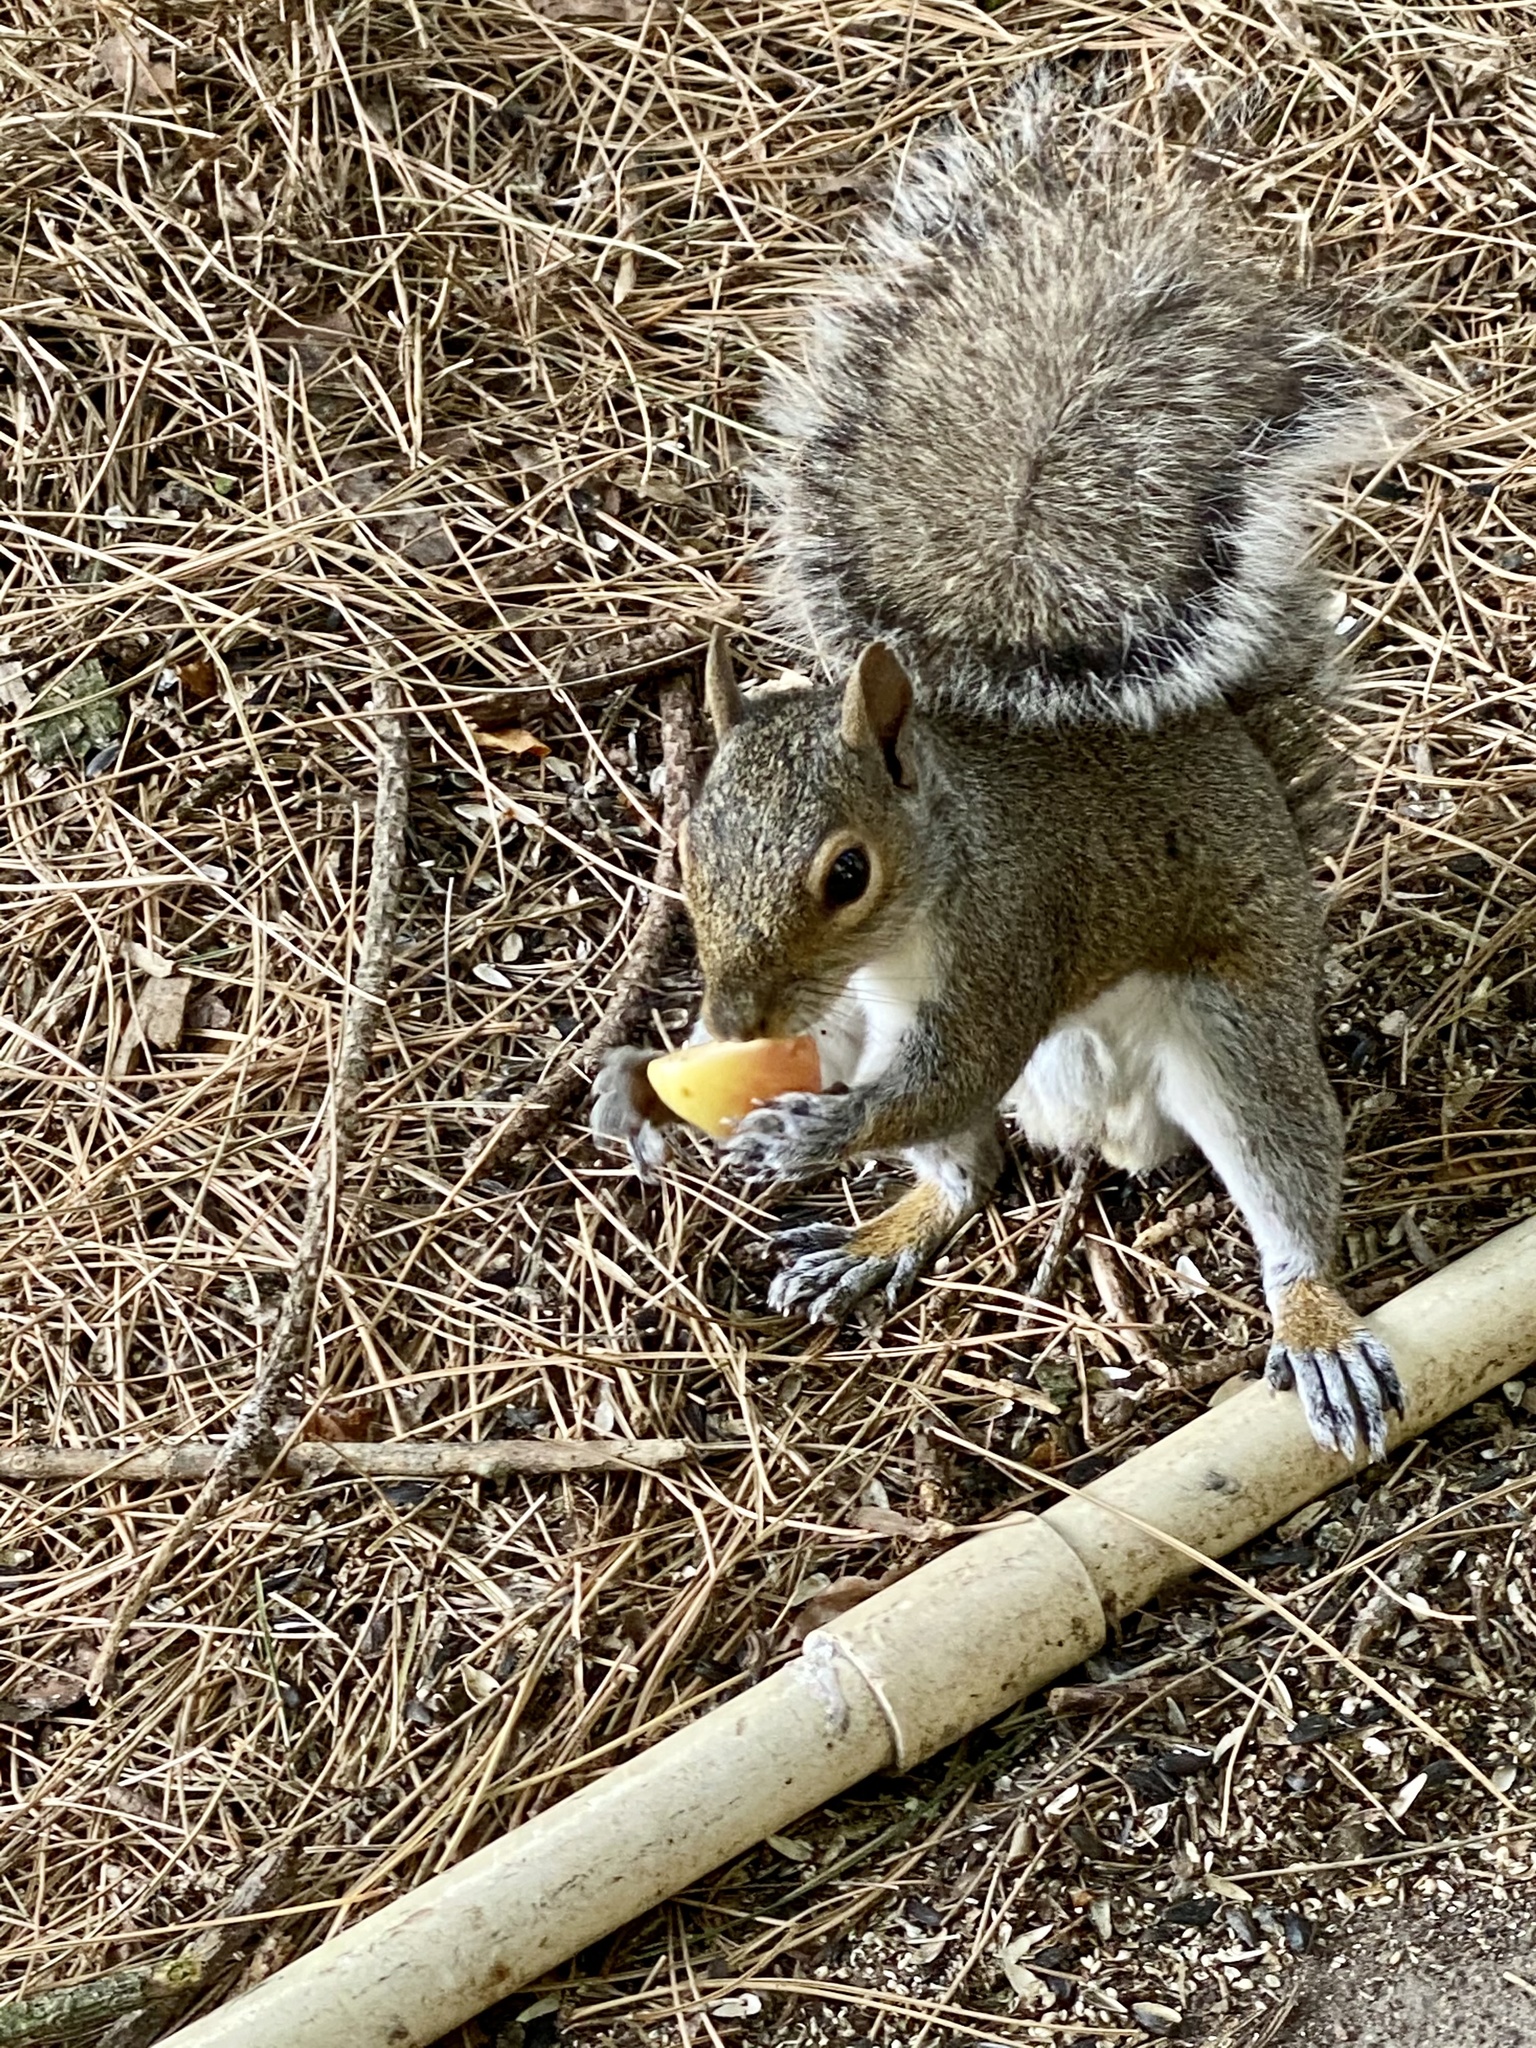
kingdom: Animalia
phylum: Chordata
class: Mammalia
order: Rodentia
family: Sciuridae
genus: Sciurus
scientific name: Sciurus carolinensis
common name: Eastern gray squirrel
